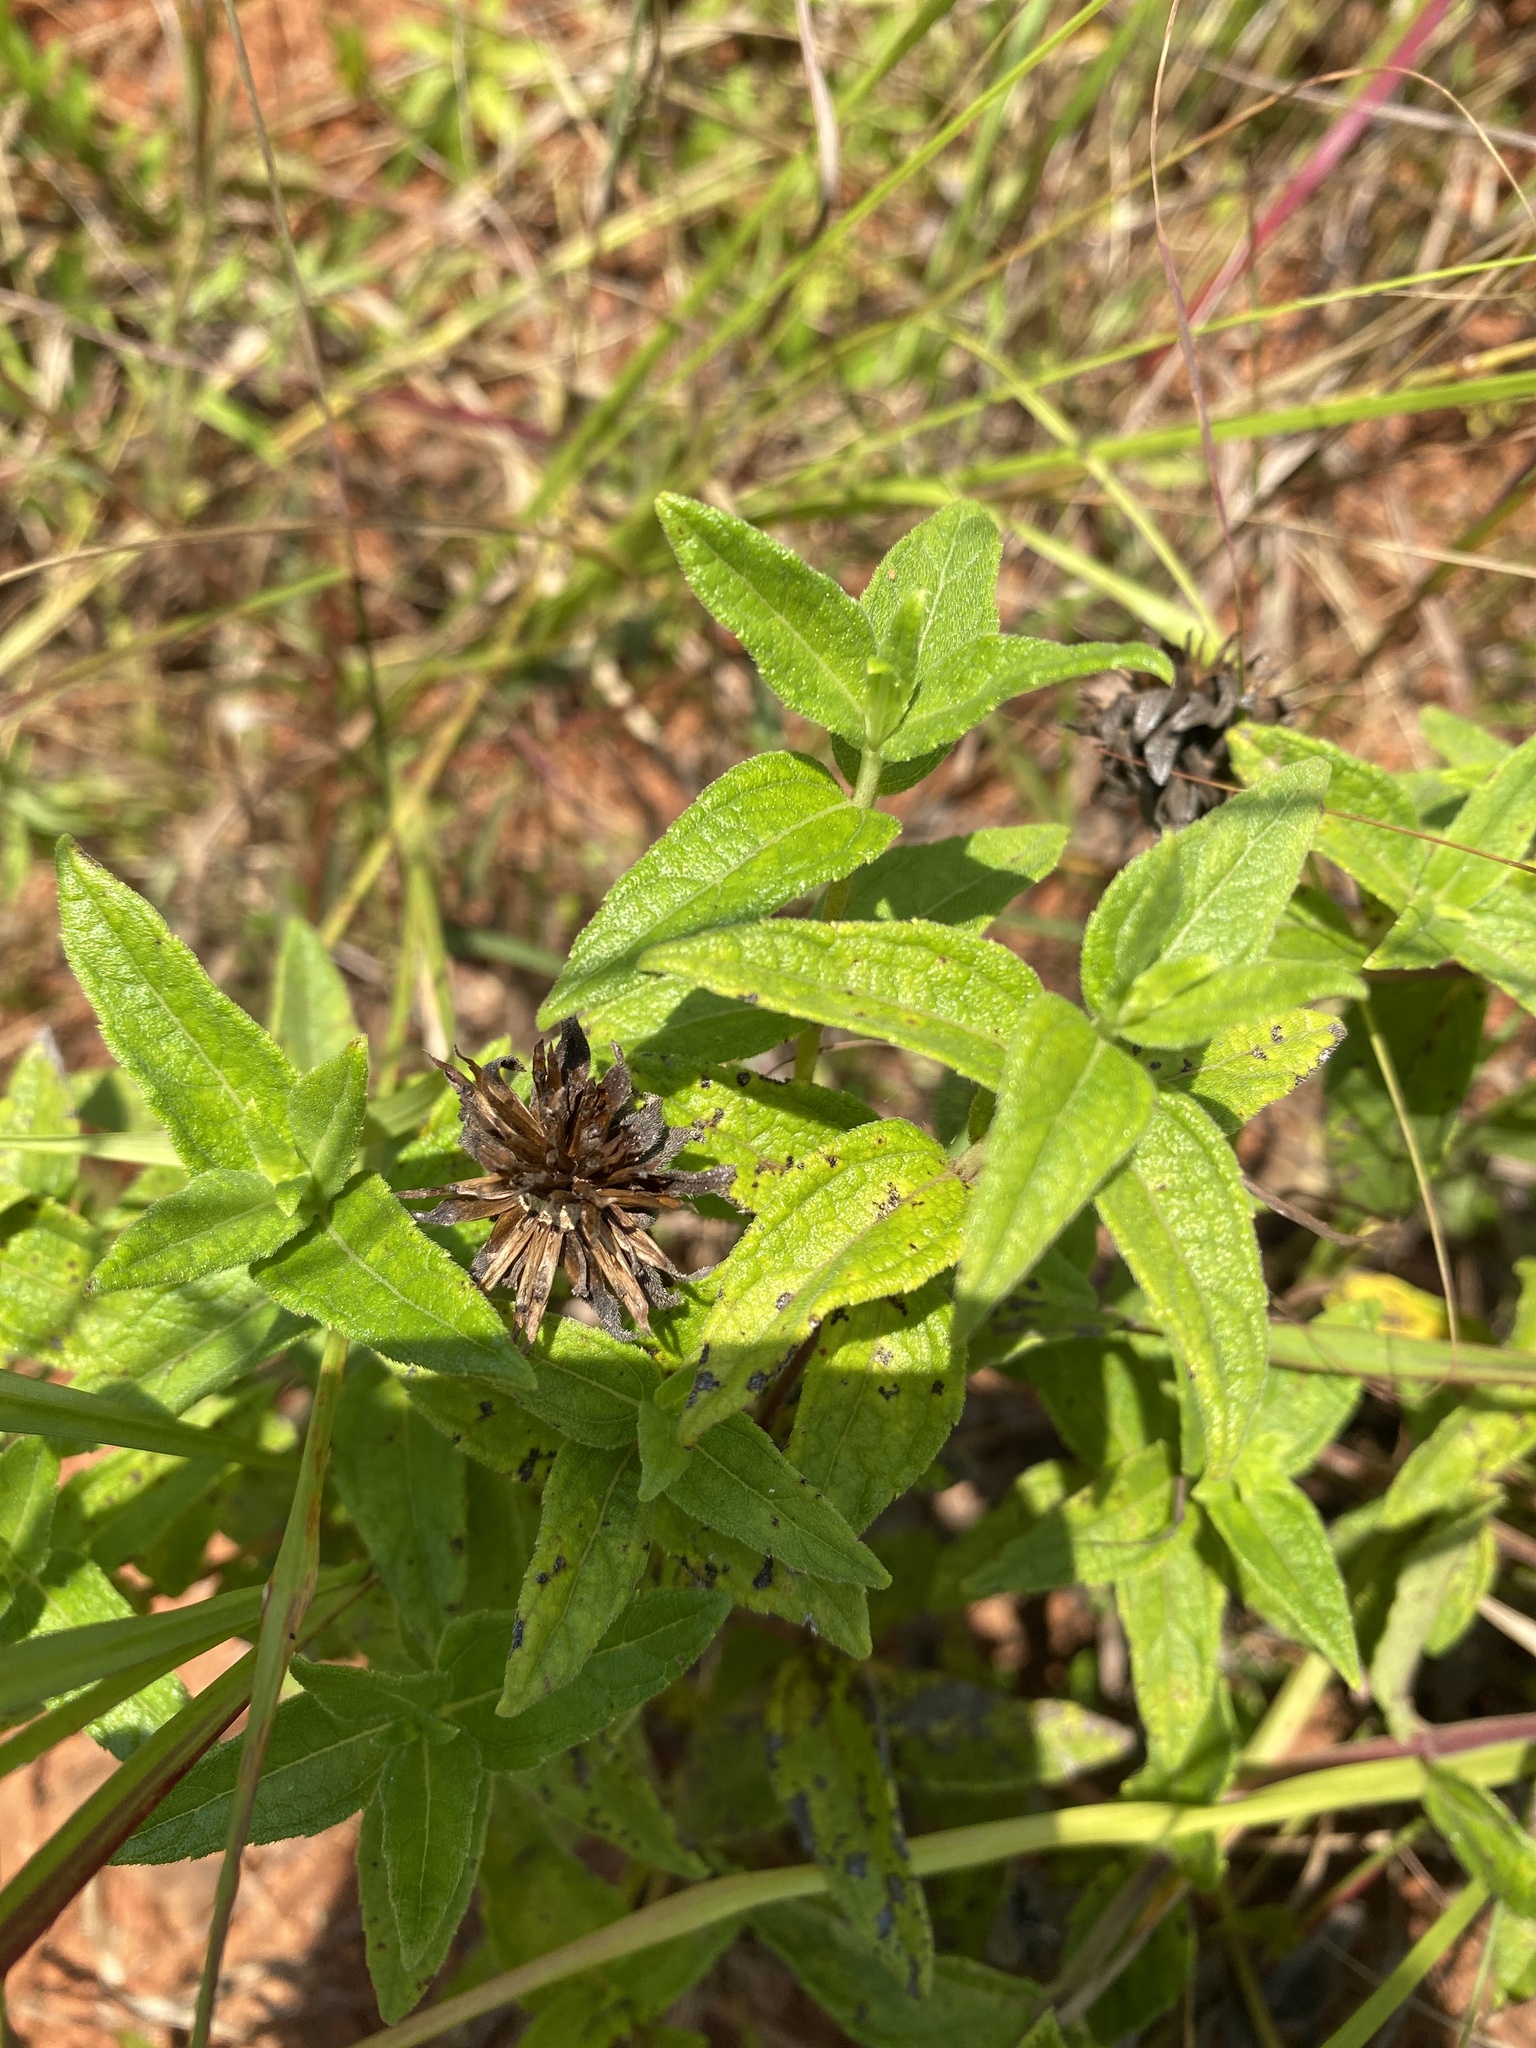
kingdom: Plantae
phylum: Tracheophyta
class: Magnoliopsida
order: Asterales
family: Asteraceae
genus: Aspilia
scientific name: Aspilia pluriseta
